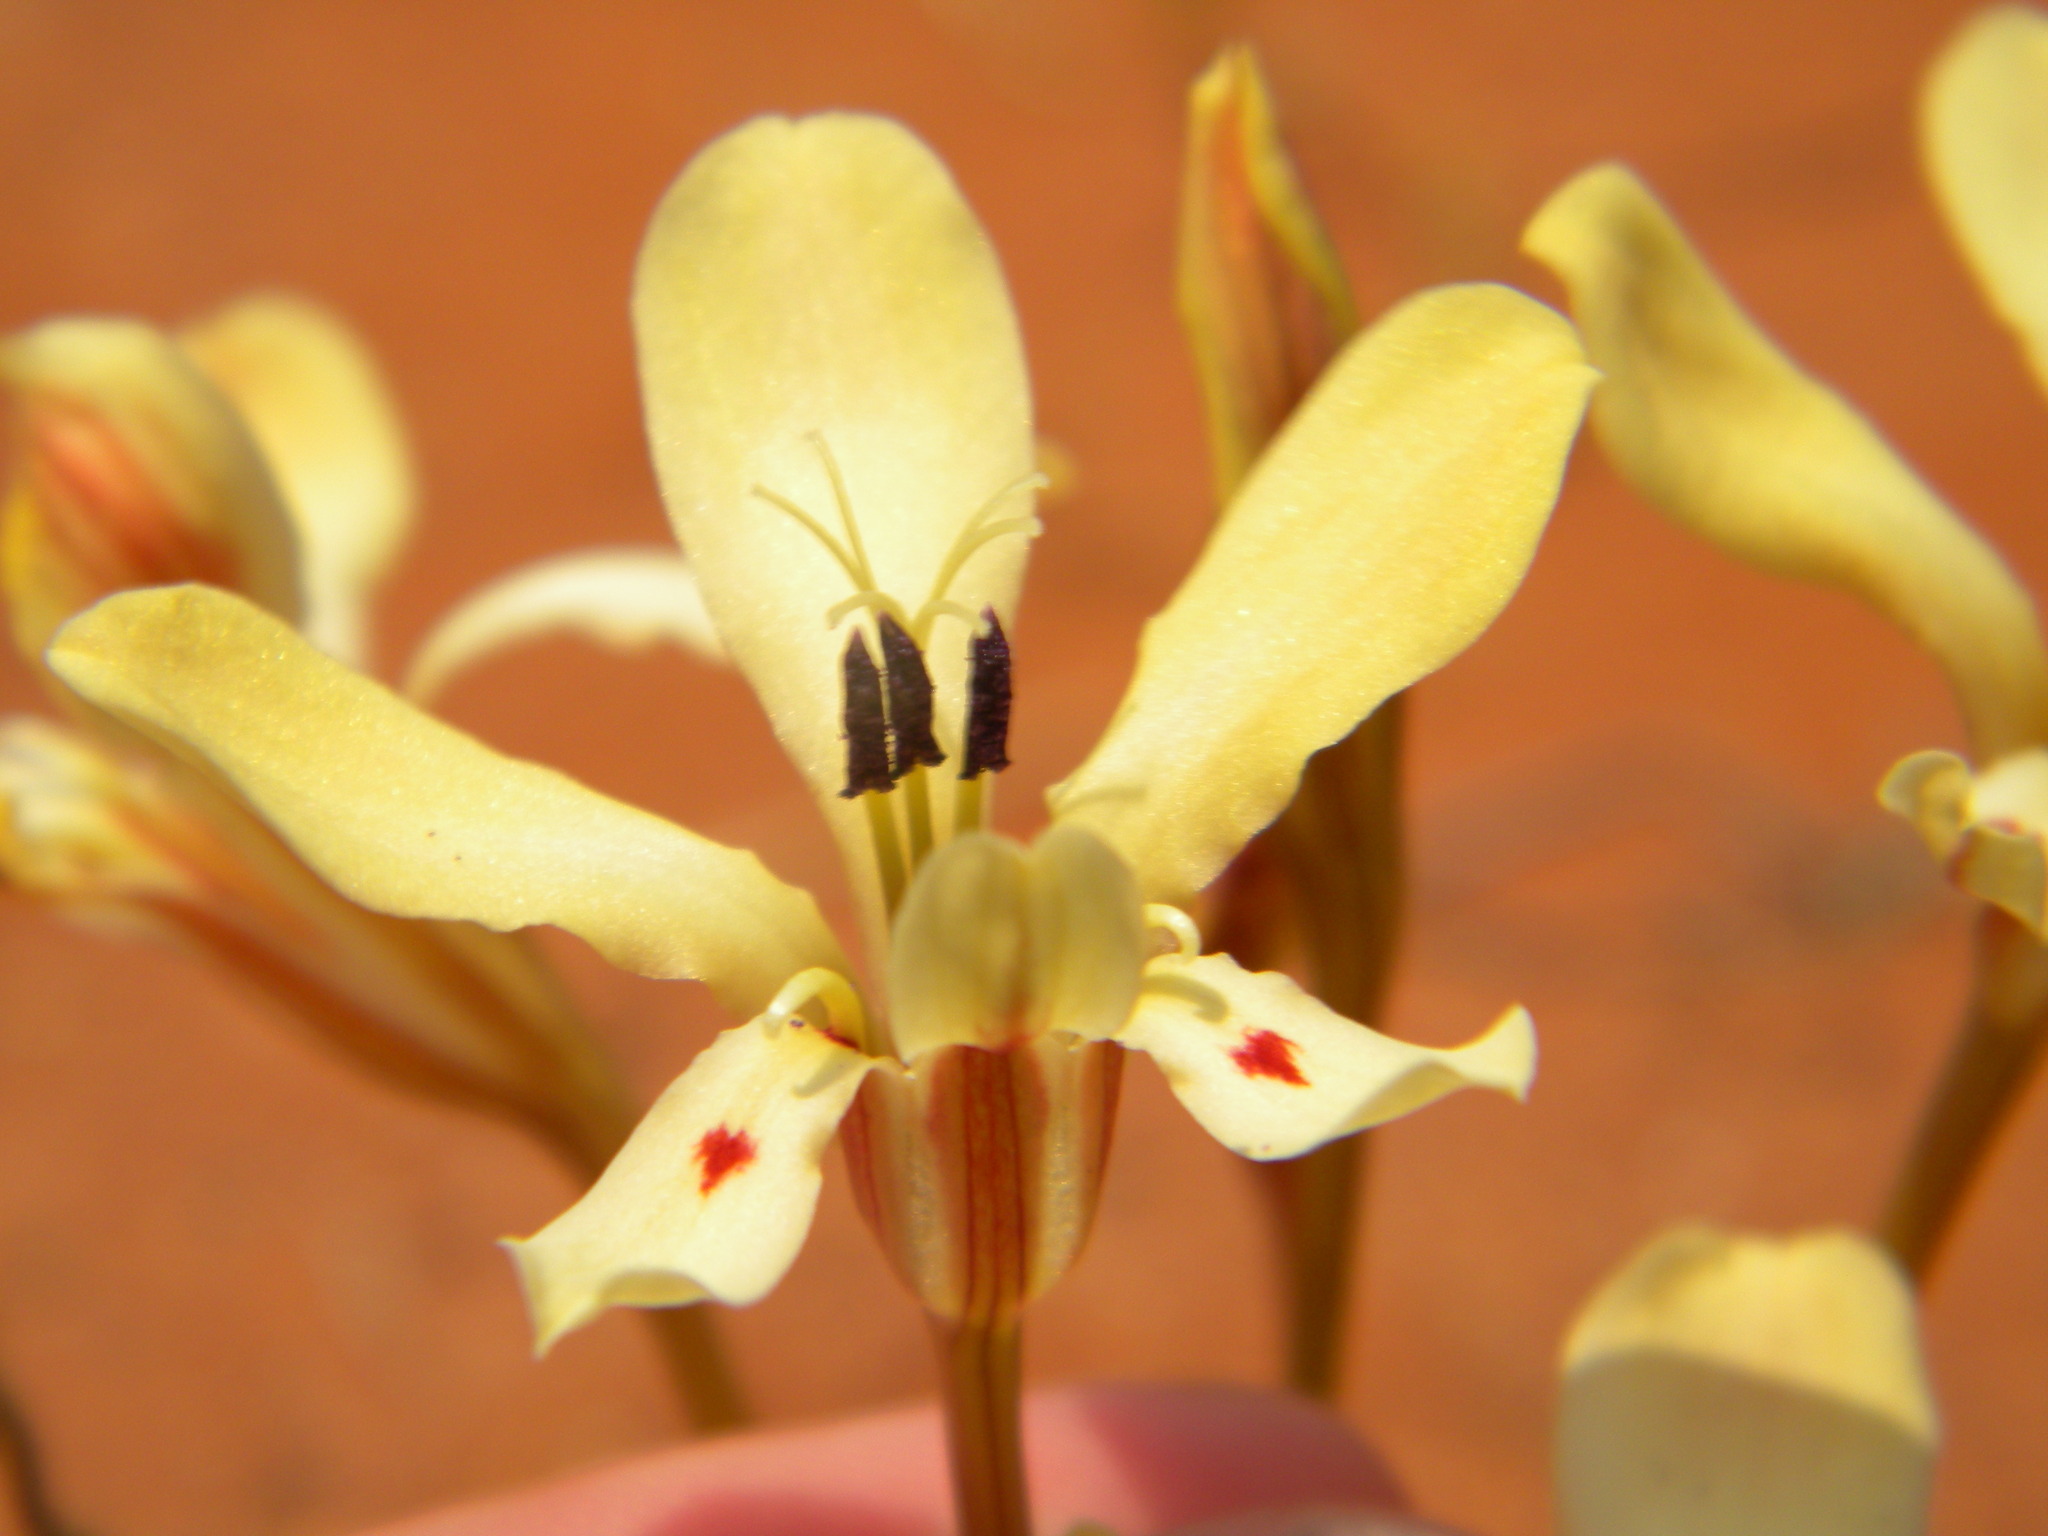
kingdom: Plantae
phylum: Tracheophyta
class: Liliopsida
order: Asparagales
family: Iridaceae
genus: Lapeirousia
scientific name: Lapeirousia fabricii
